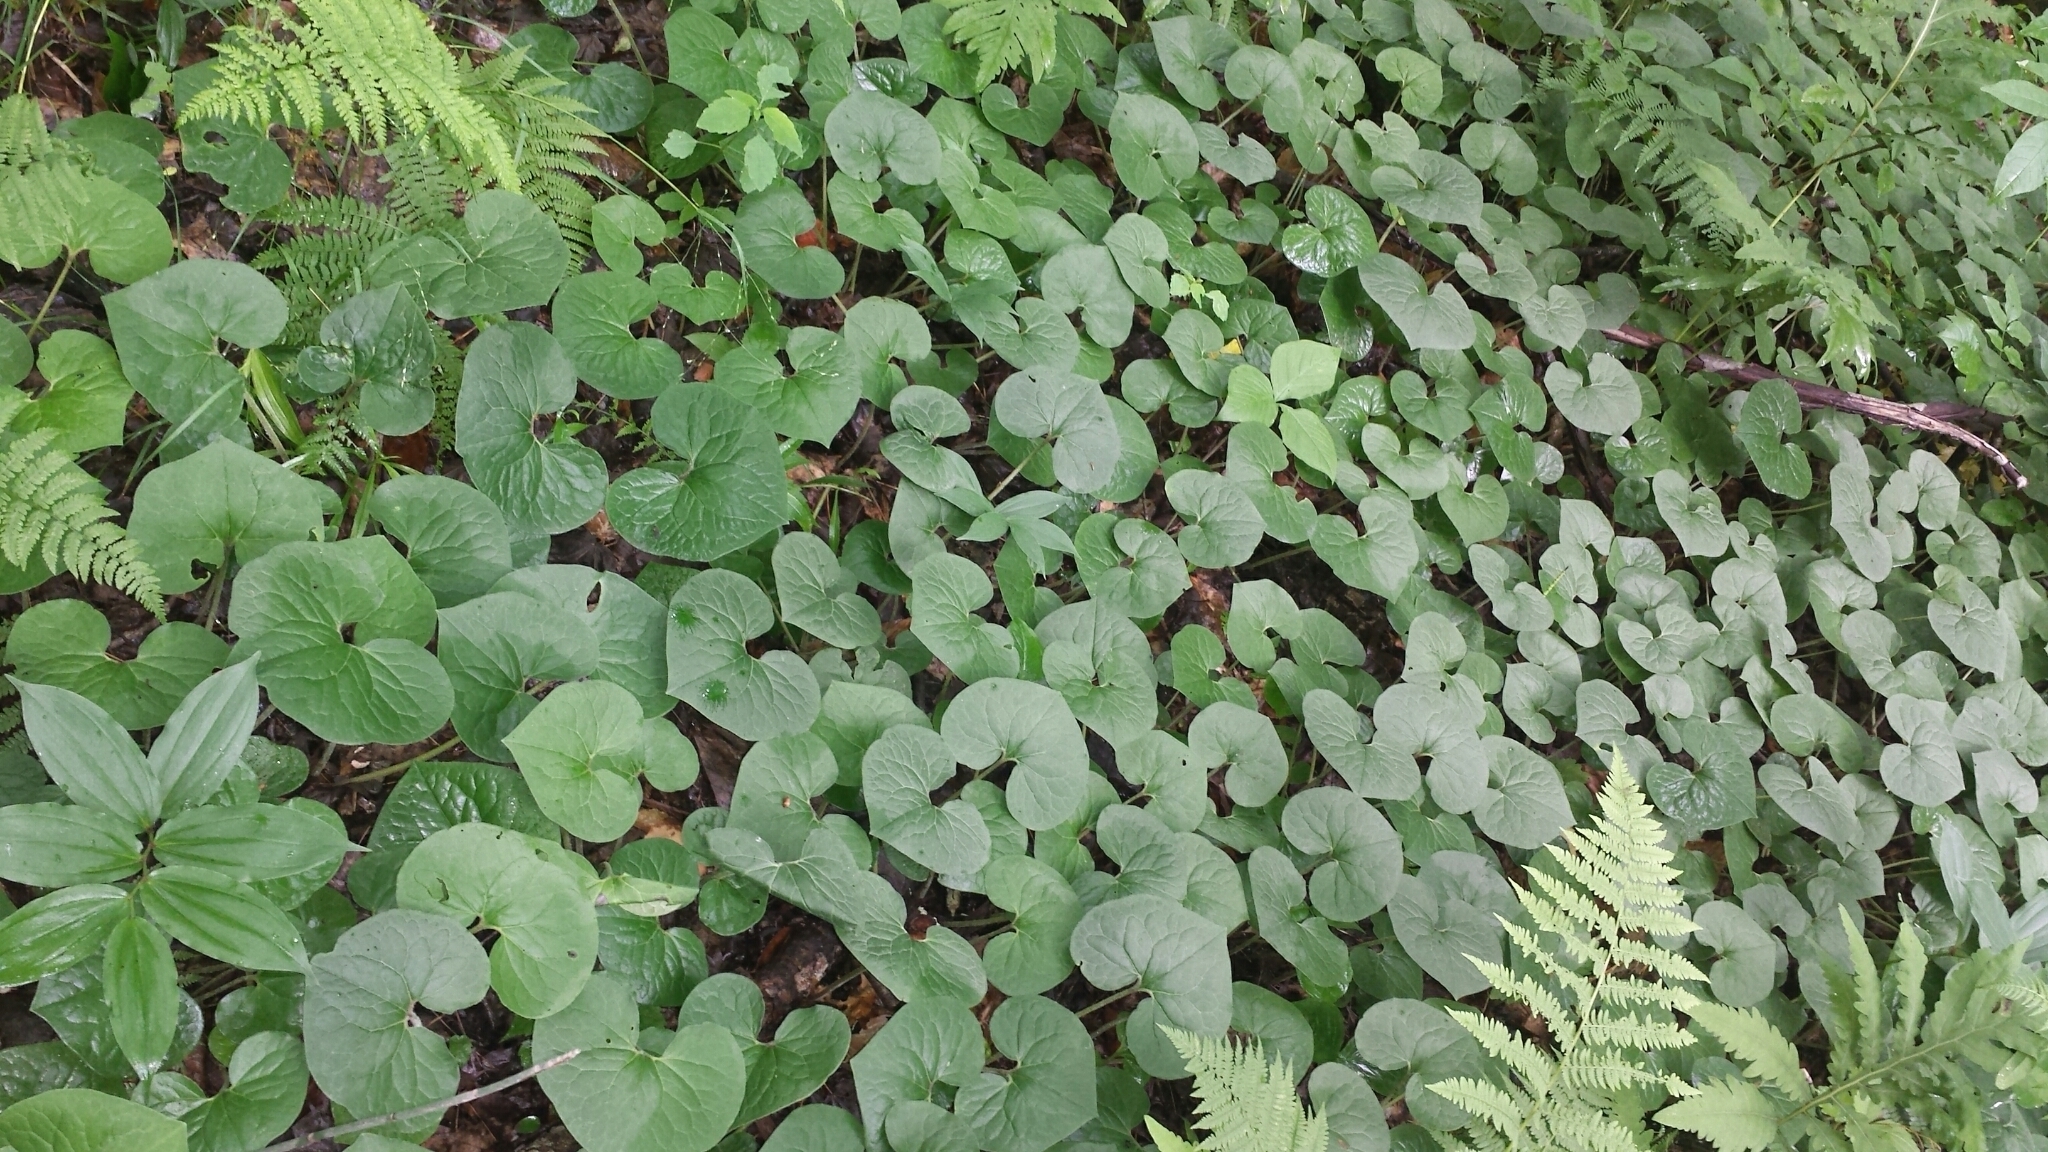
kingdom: Plantae
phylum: Tracheophyta
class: Magnoliopsida
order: Piperales
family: Aristolochiaceae
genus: Asarum
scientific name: Asarum canadense
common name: Wild ginger
